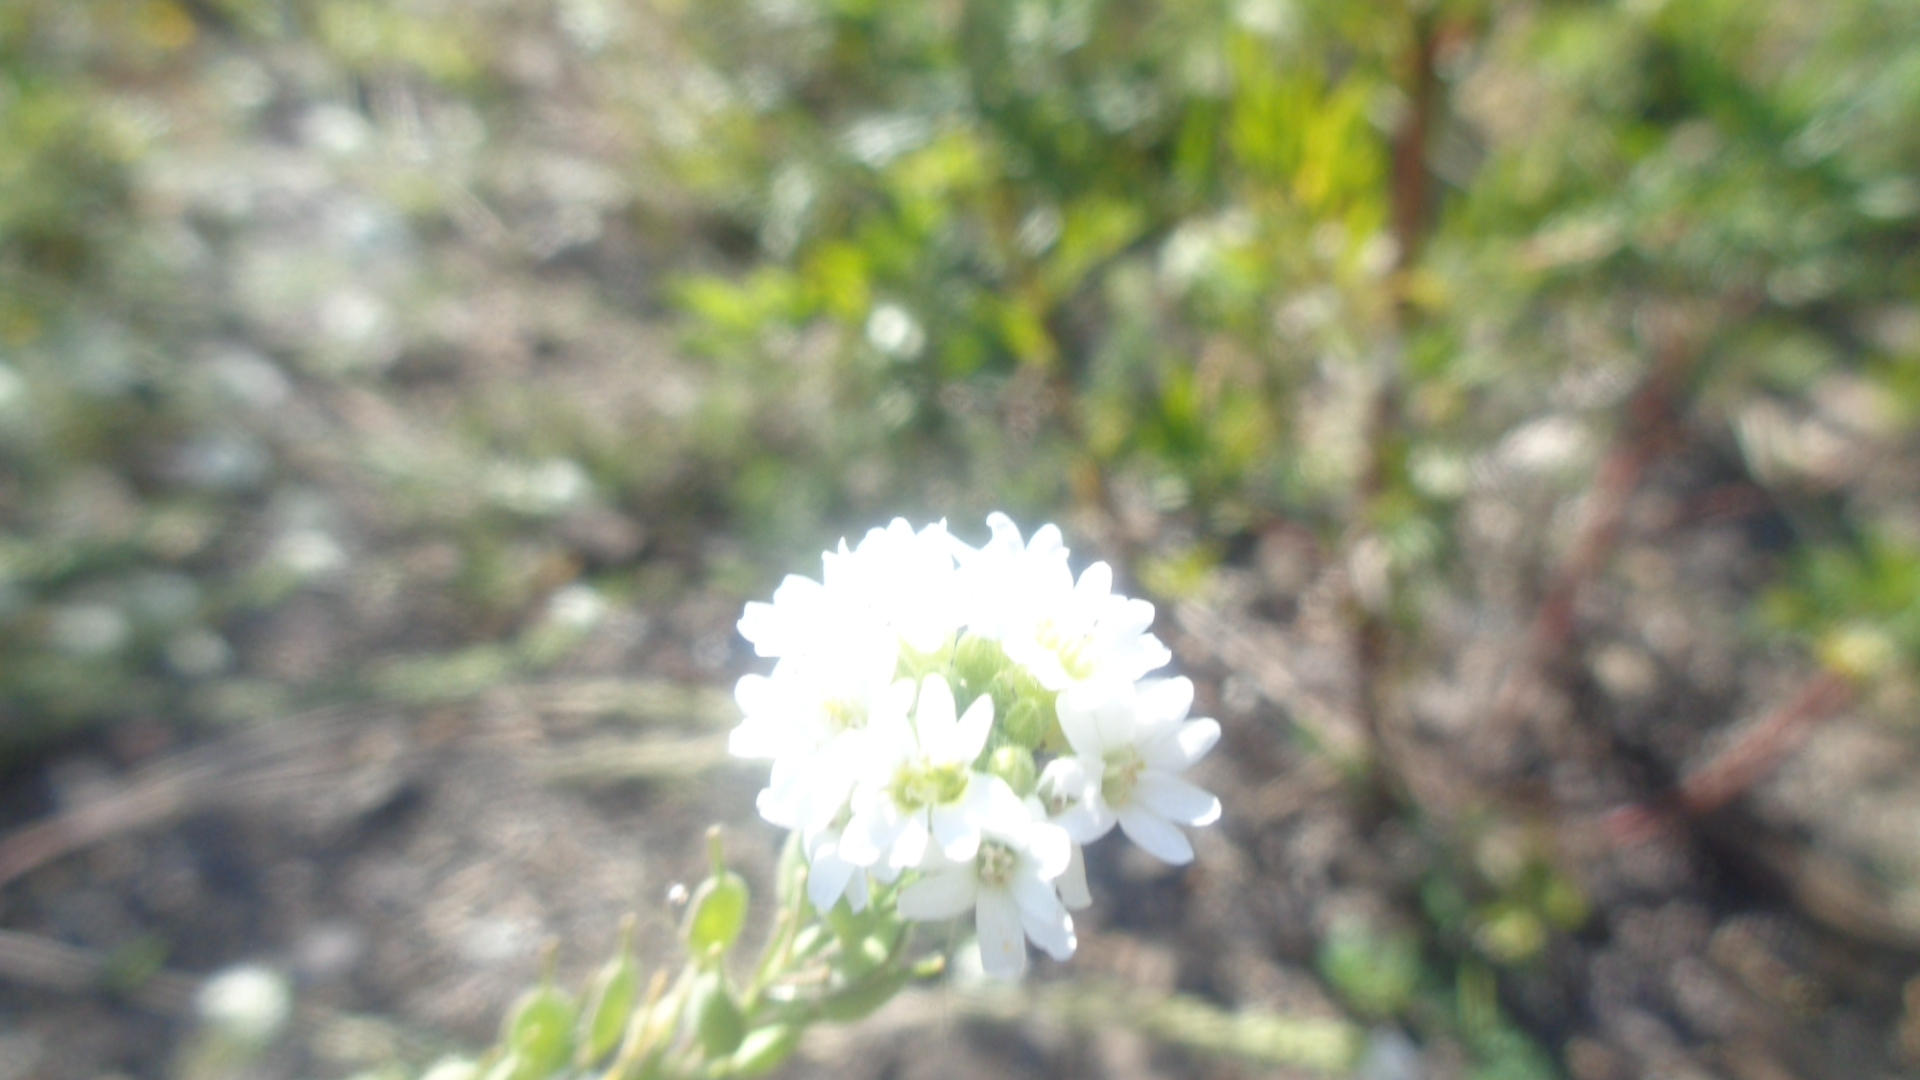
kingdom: Plantae
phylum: Tracheophyta
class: Magnoliopsida
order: Brassicales
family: Brassicaceae
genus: Berteroa
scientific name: Berteroa incana
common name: Hoary alison
